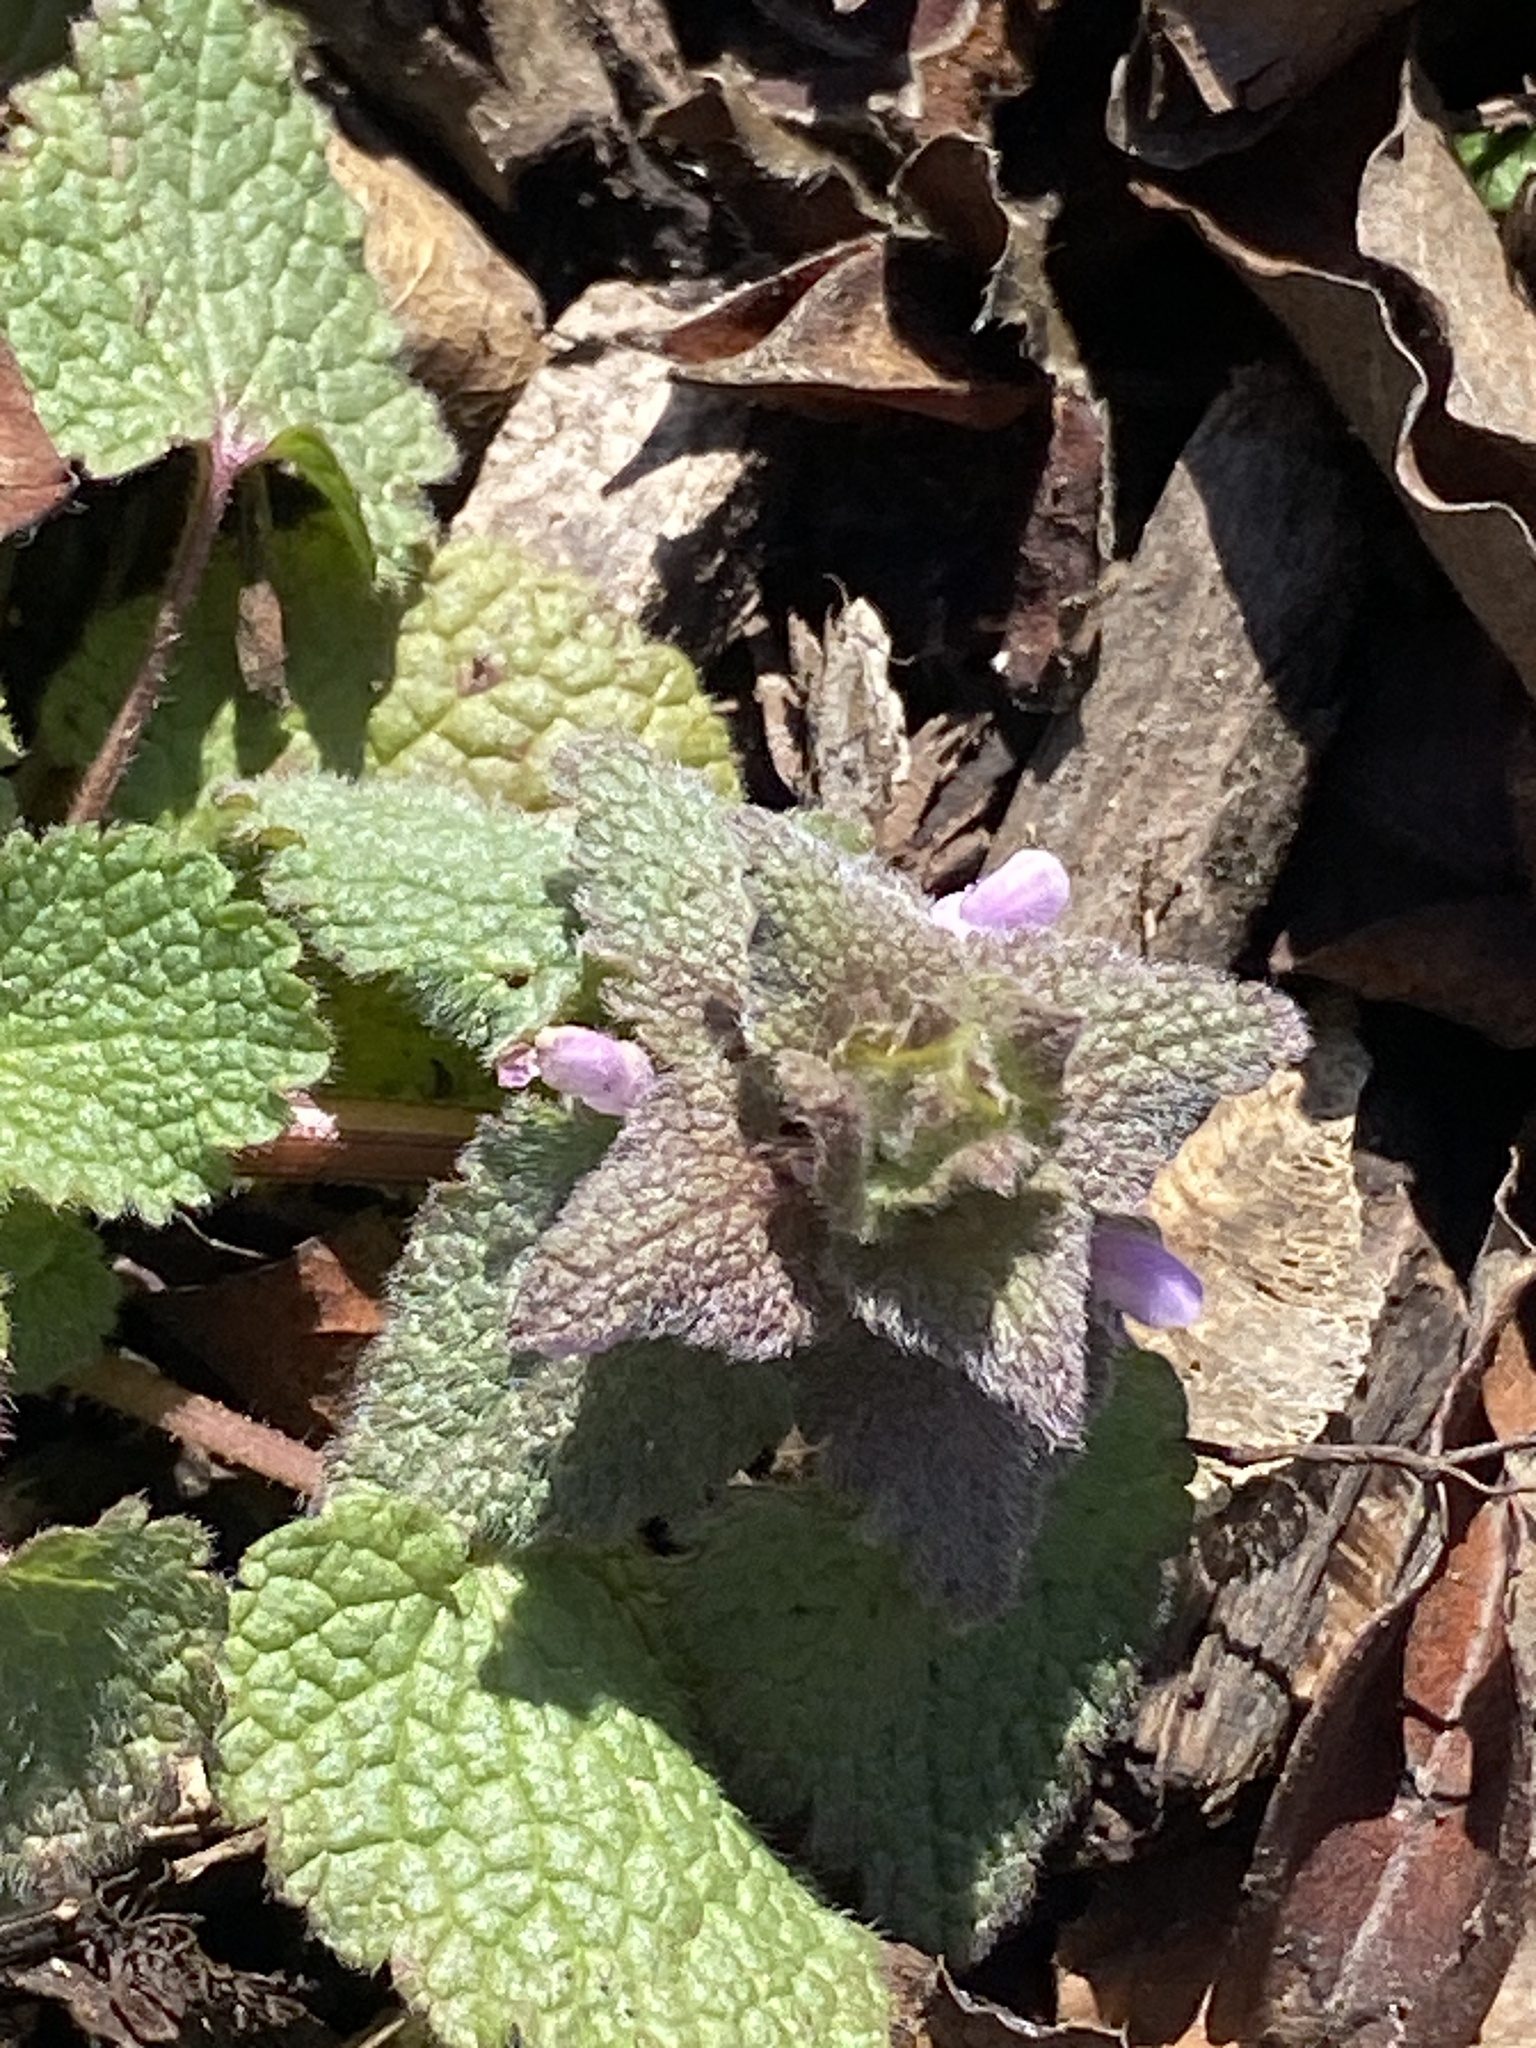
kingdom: Plantae
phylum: Tracheophyta
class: Magnoliopsida
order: Lamiales
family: Lamiaceae
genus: Lamium
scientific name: Lamium purpureum
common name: Red dead-nettle
